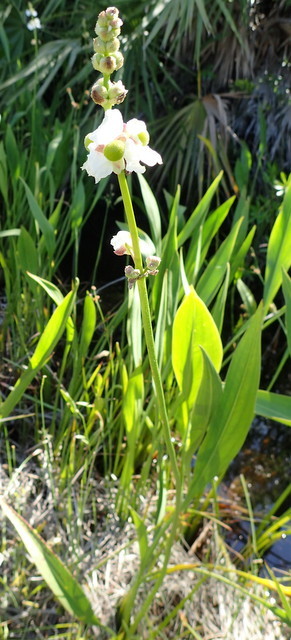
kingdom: Plantae
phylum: Tracheophyta
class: Liliopsida
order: Alismatales
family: Alismataceae
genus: Sagittaria
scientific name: Sagittaria lancifolia
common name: Lance-leaf arrowhead
